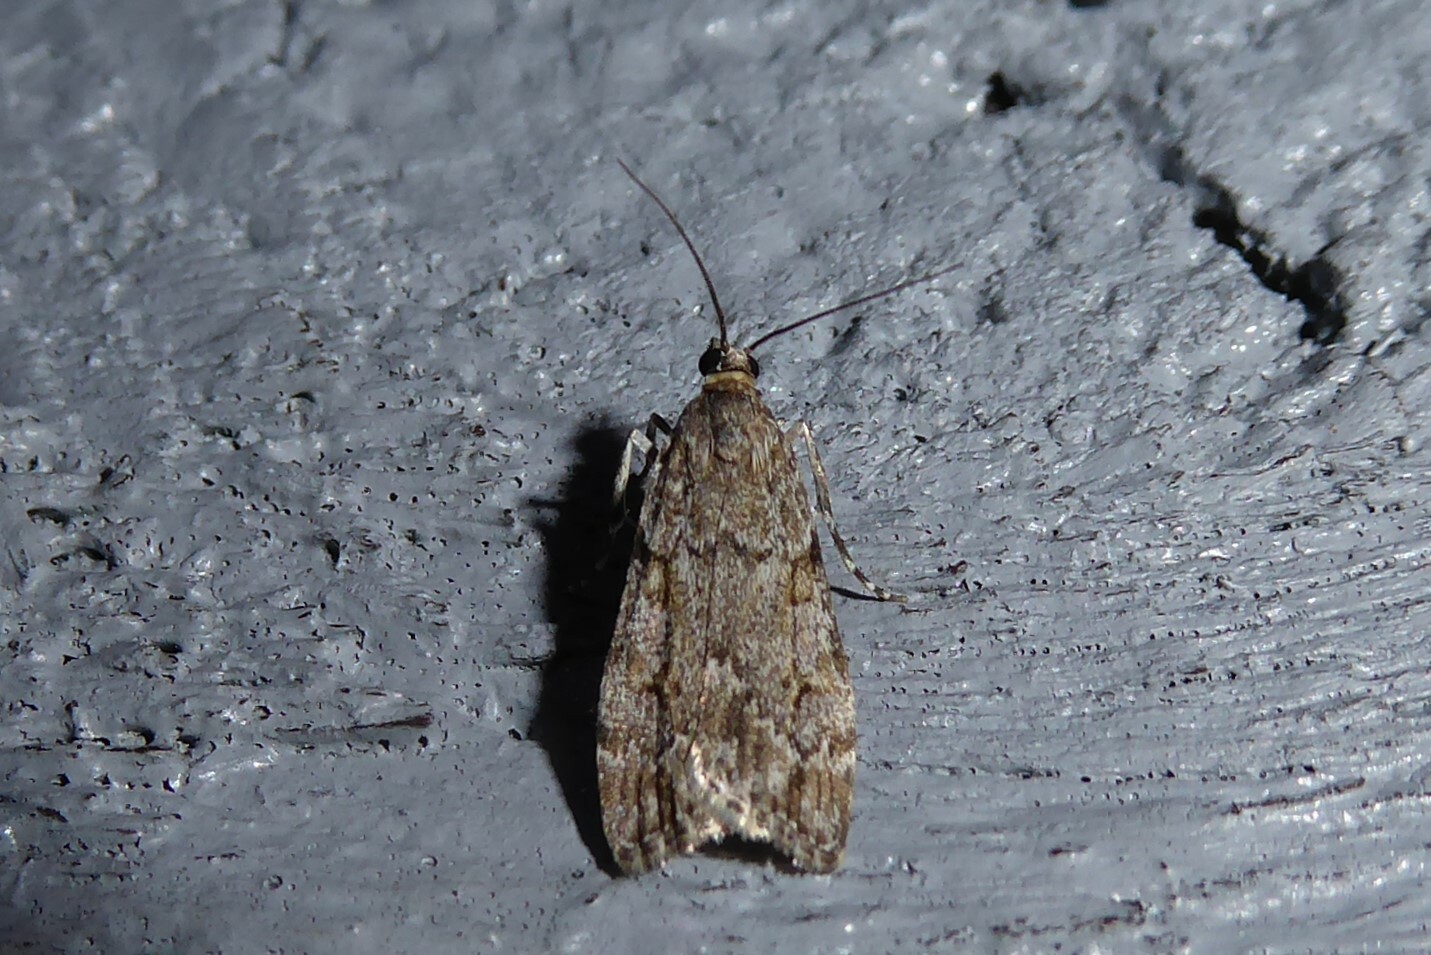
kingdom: Animalia
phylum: Arthropoda
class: Insecta
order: Lepidoptera
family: Crambidae
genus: Eudonia
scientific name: Eudonia cymatias
